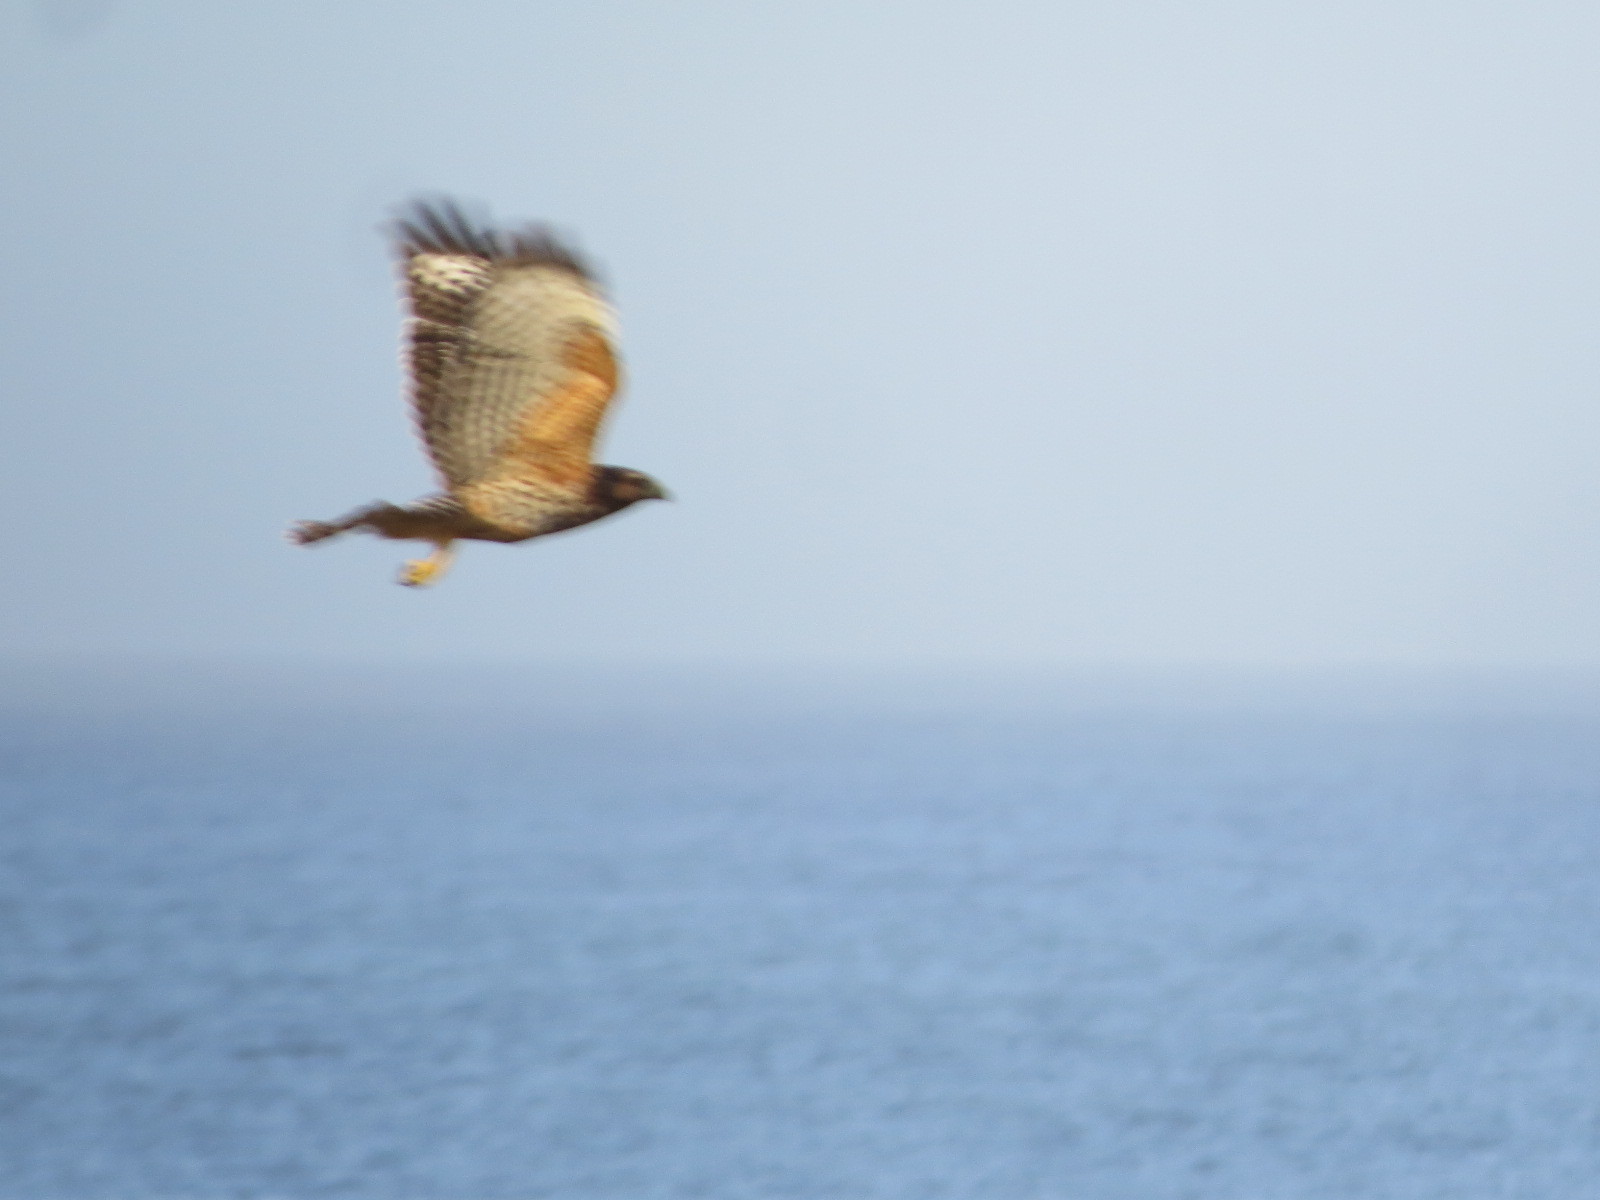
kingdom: Animalia
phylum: Chordata
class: Aves
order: Accipitriformes
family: Accipitridae
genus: Buteo
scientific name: Buteo lineatus
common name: Red-shouldered hawk
